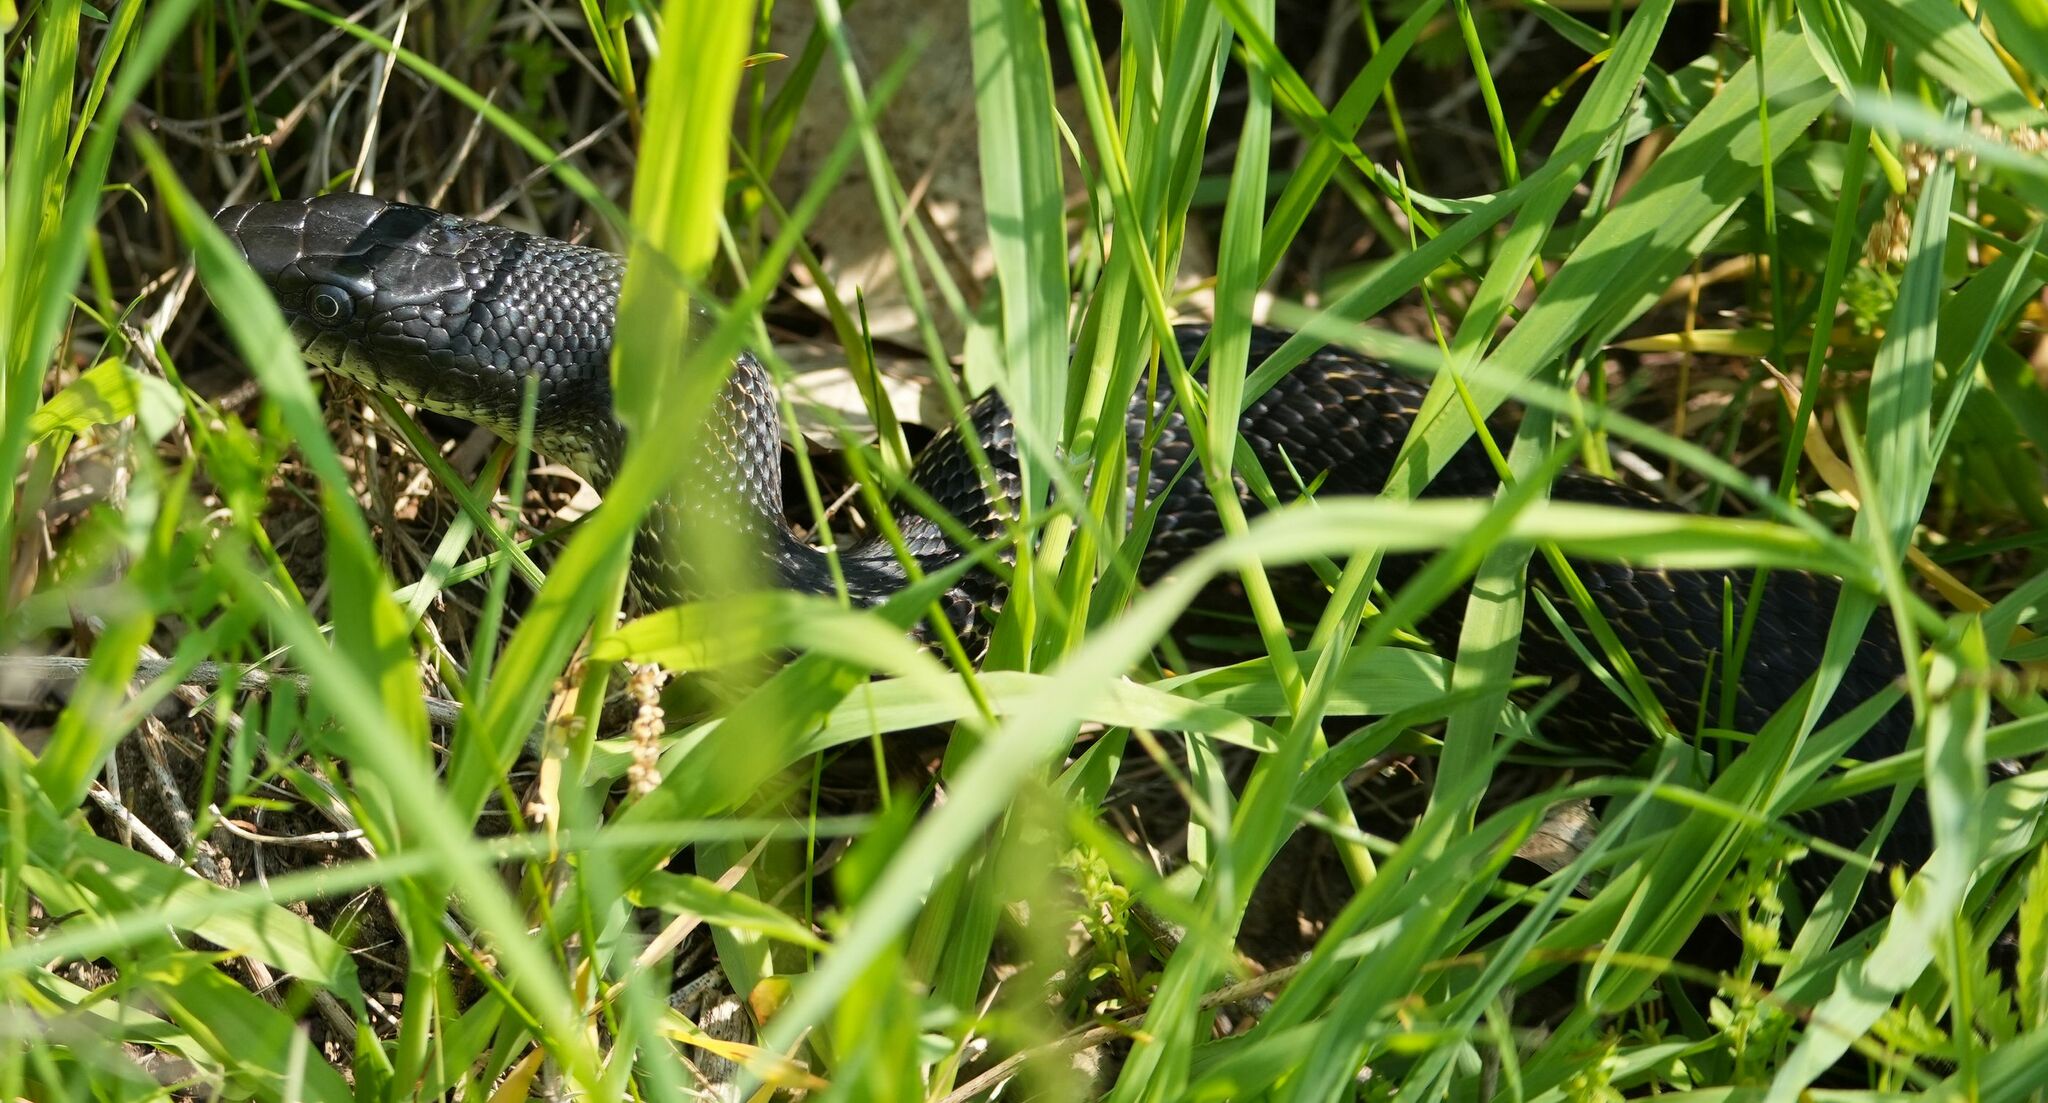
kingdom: Animalia
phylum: Chordata
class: Squamata
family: Colubridae
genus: Pantherophis
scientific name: Pantherophis spiloides
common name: Gray rat snake
